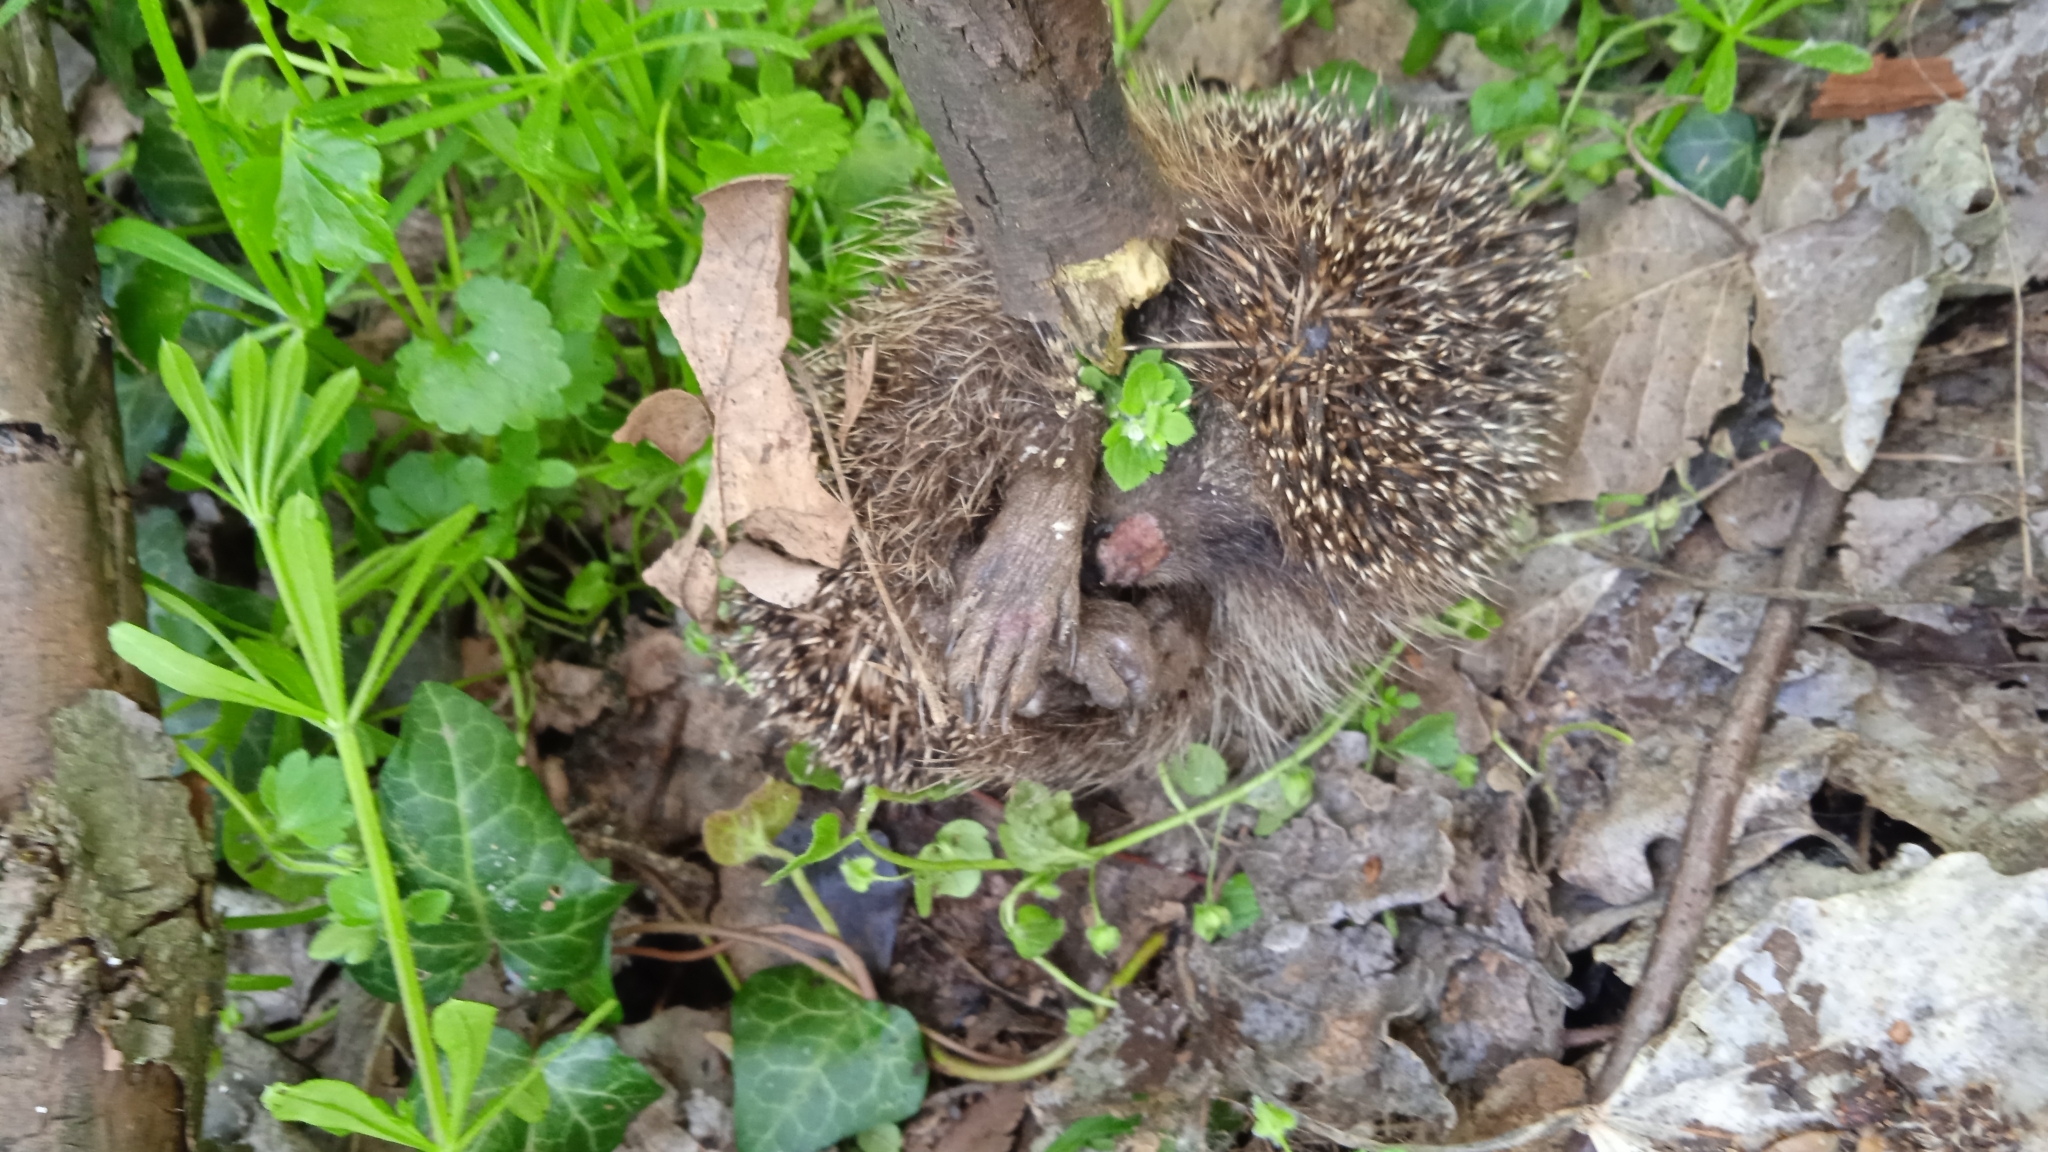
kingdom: Animalia
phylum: Chordata
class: Mammalia
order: Erinaceomorpha
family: Erinaceidae
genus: Erinaceus
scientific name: Erinaceus roumanicus
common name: Northern white-breasted hedgehog
